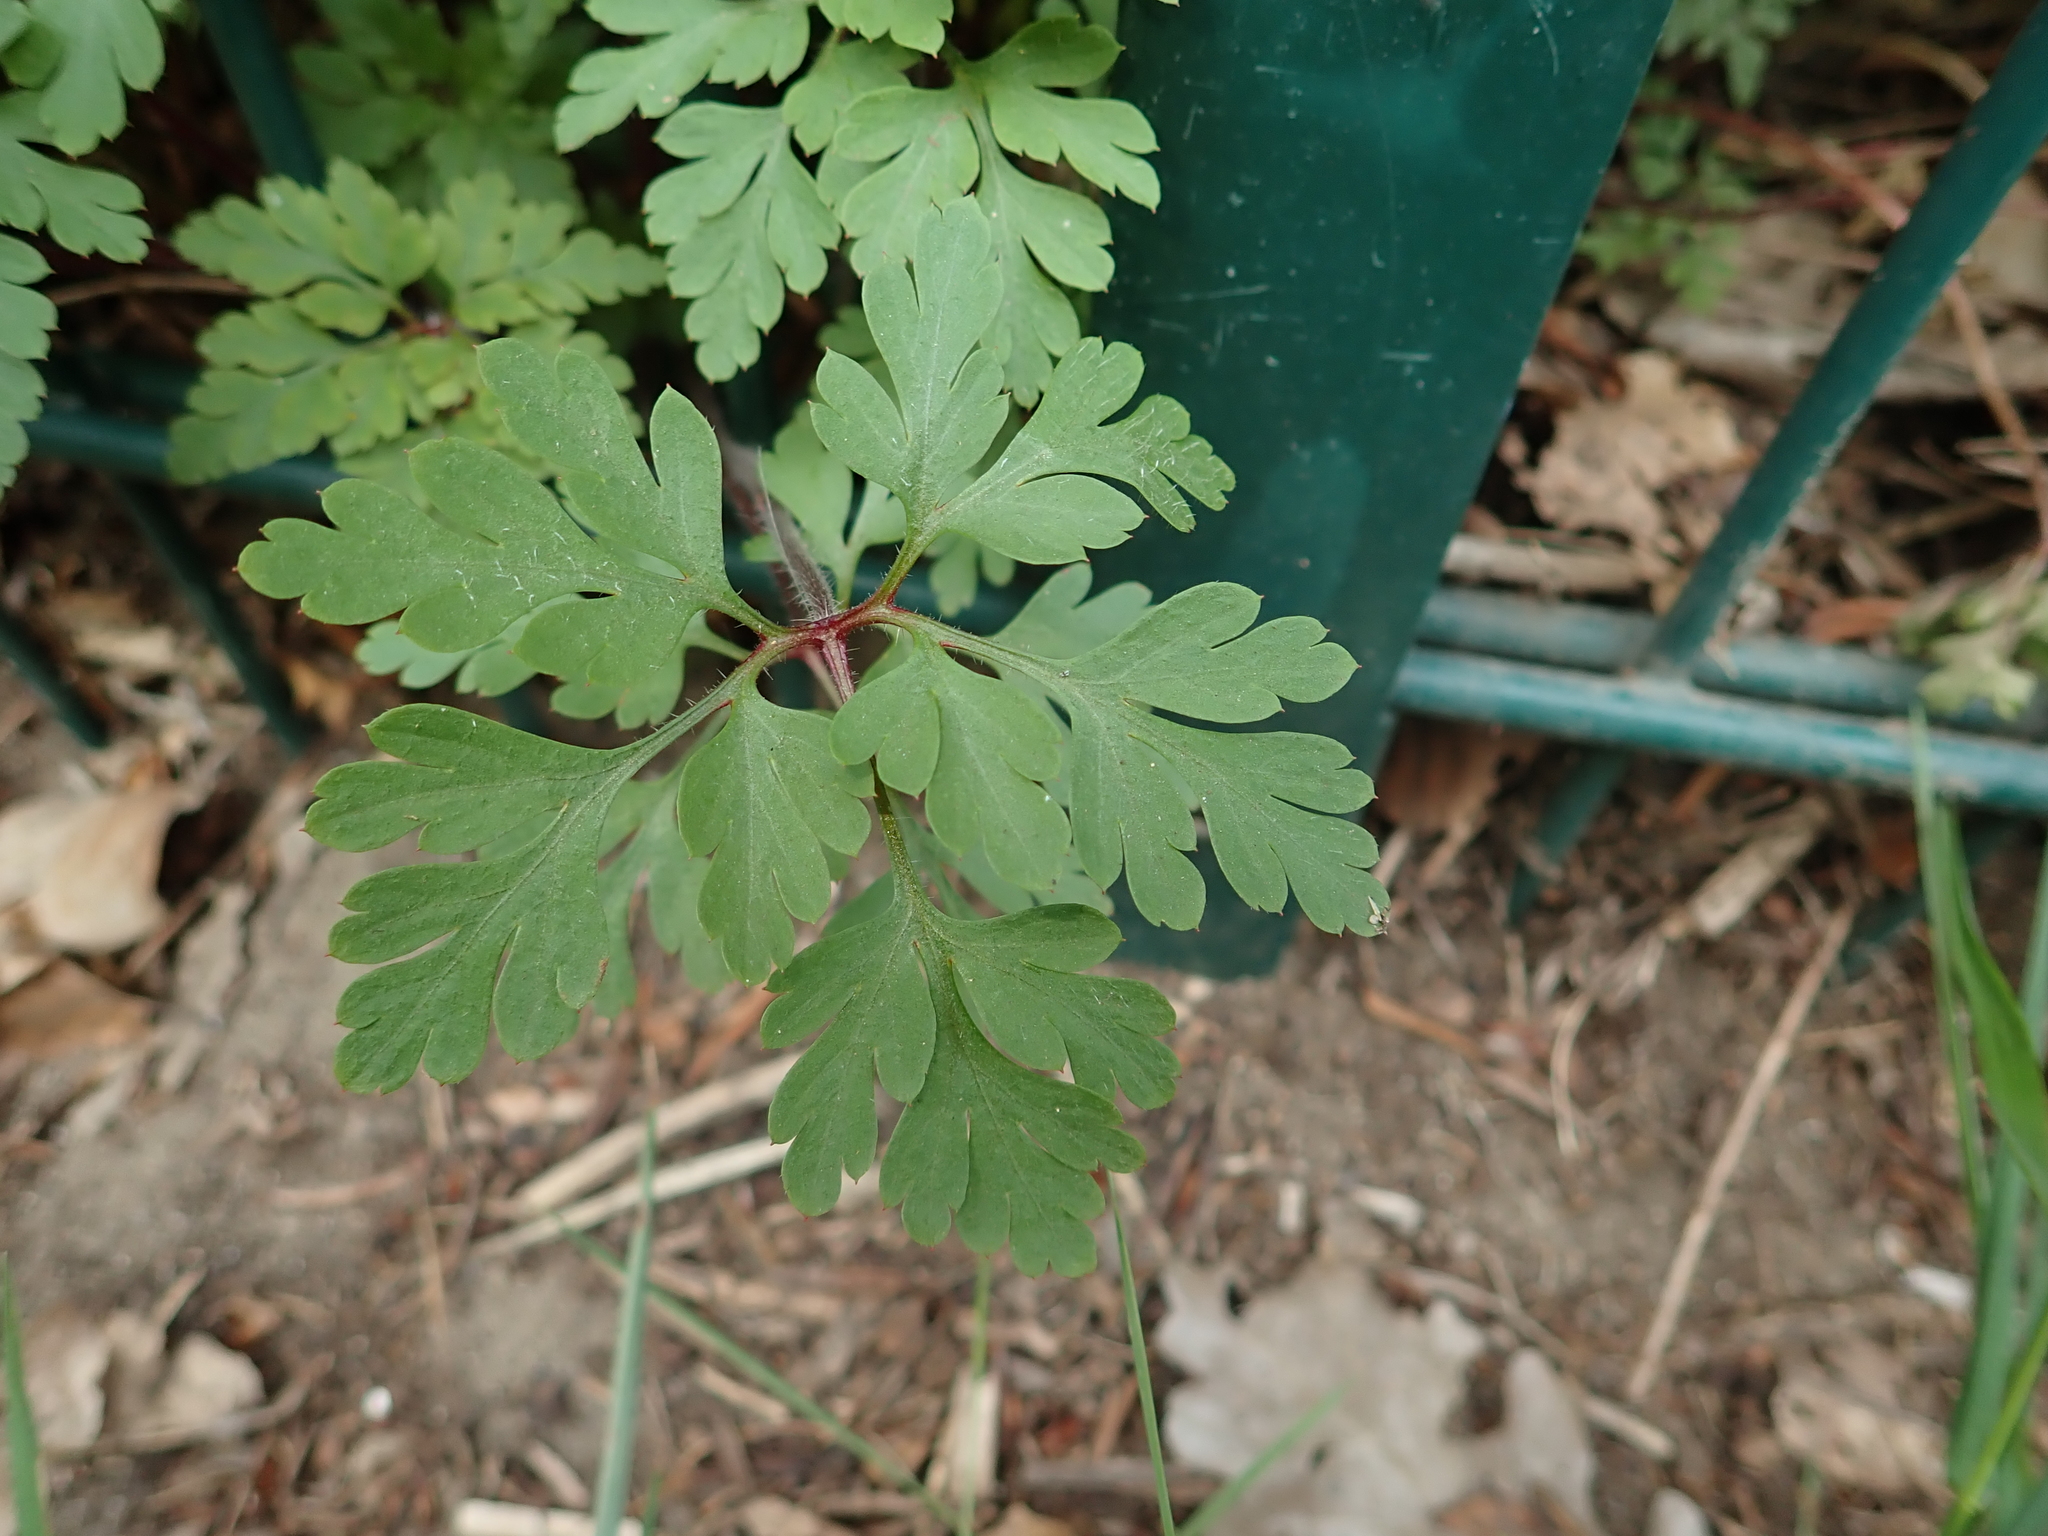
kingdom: Plantae
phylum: Tracheophyta
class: Magnoliopsida
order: Geraniales
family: Geraniaceae
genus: Geranium
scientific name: Geranium robertianum
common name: Herb-robert
